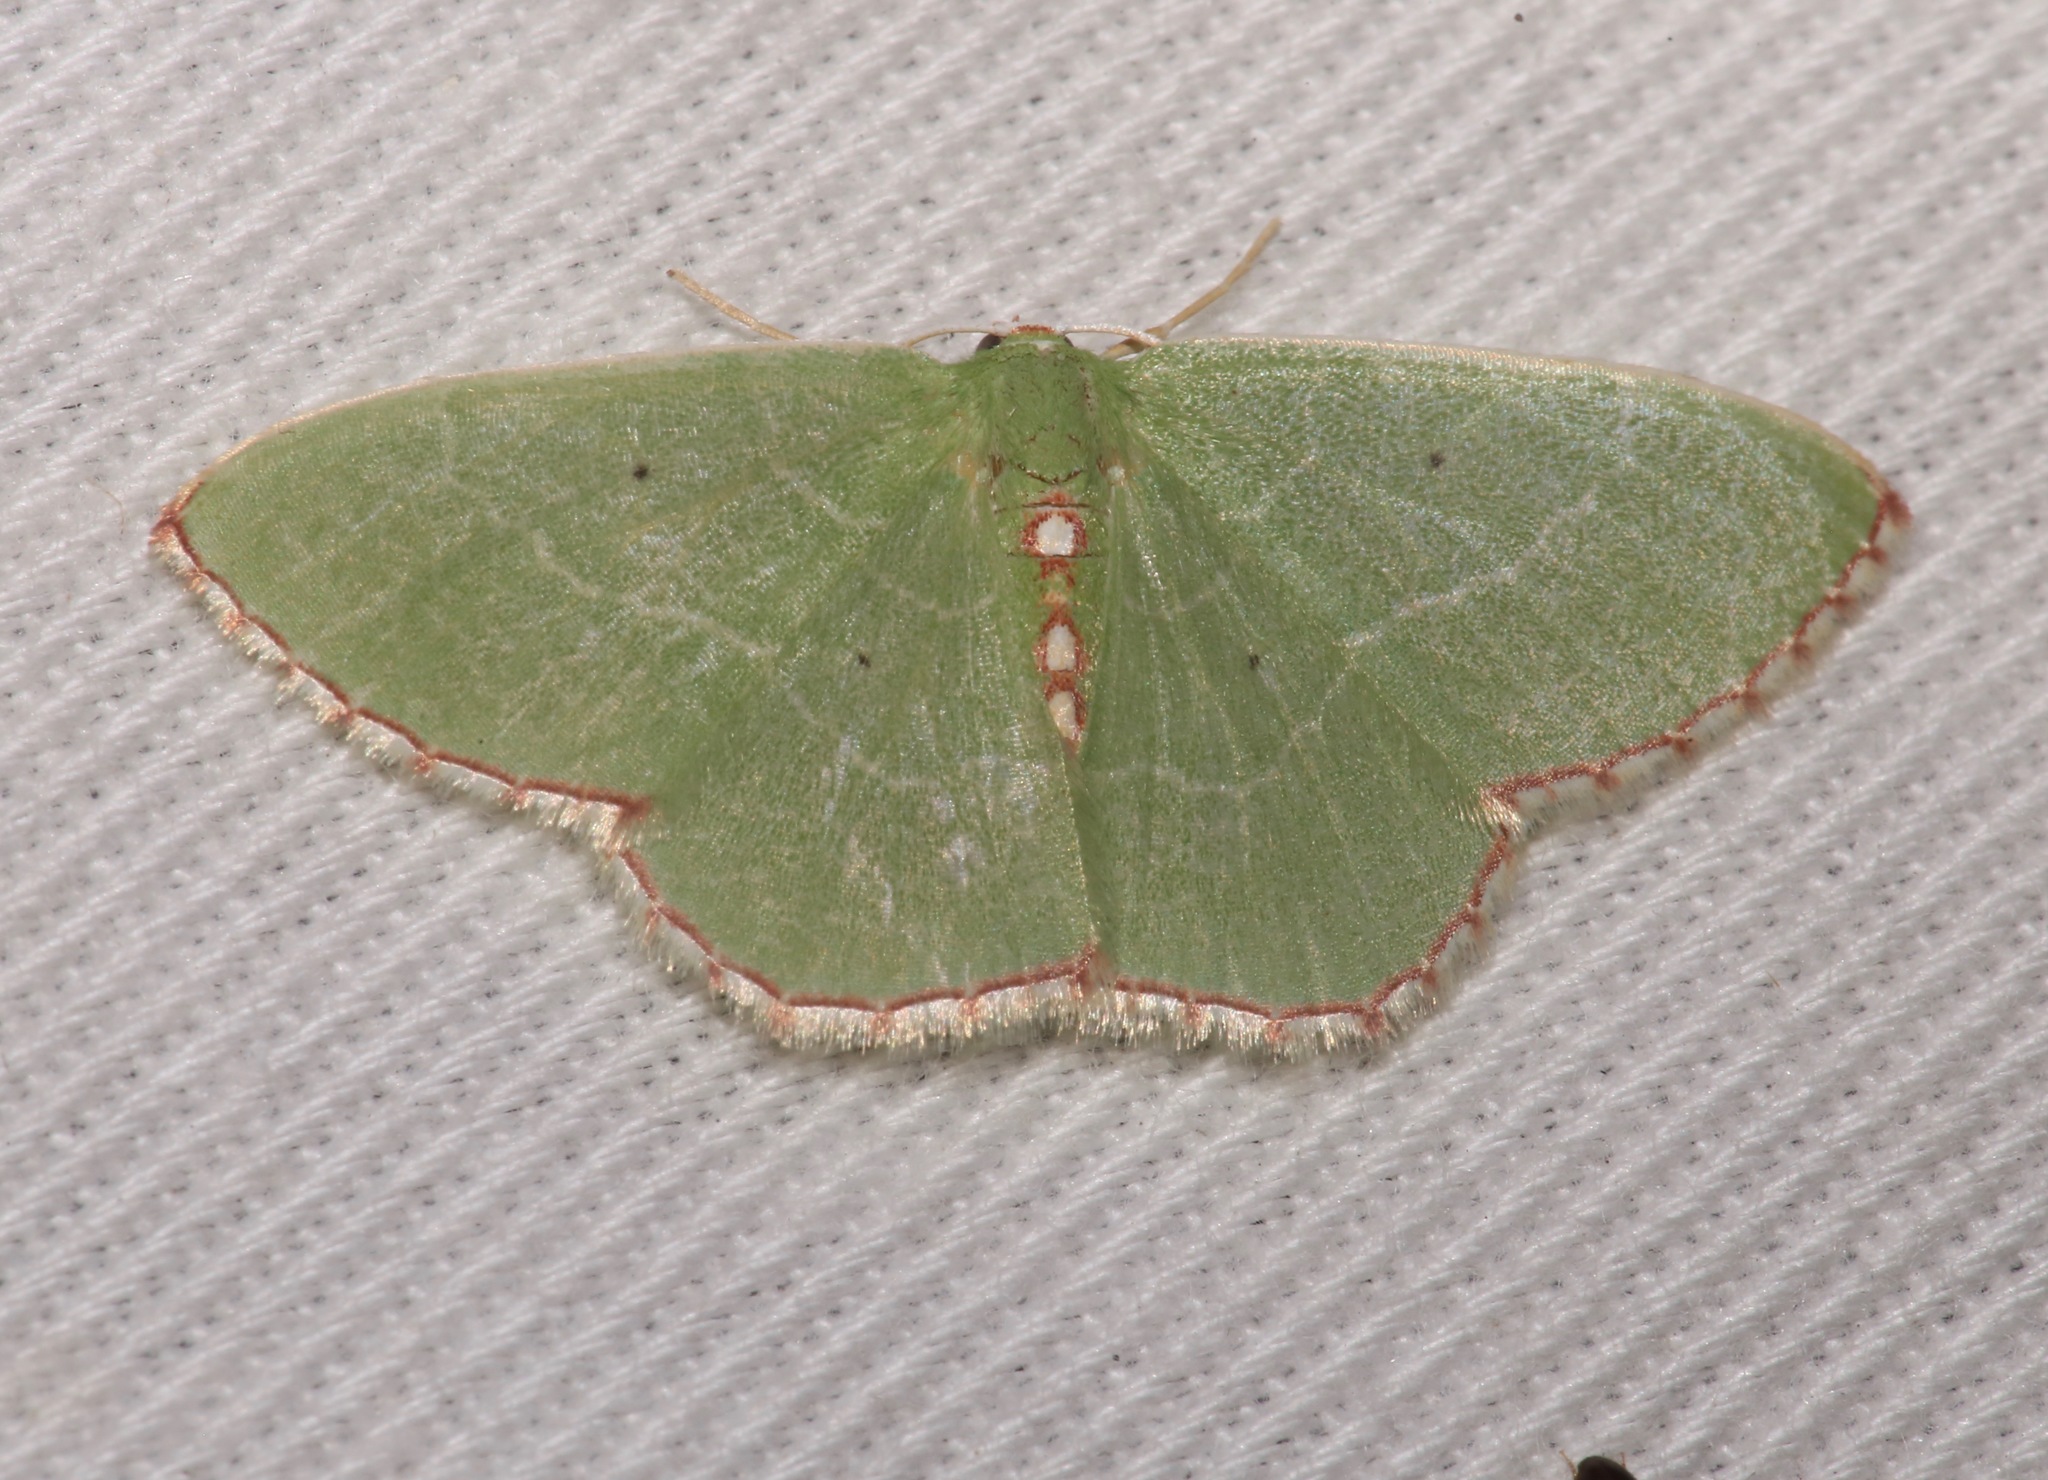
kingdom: Animalia
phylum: Arthropoda
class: Insecta
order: Lepidoptera
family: Geometridae
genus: Nemoria
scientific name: Nemoria lixaria
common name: Red-bordered emerald
